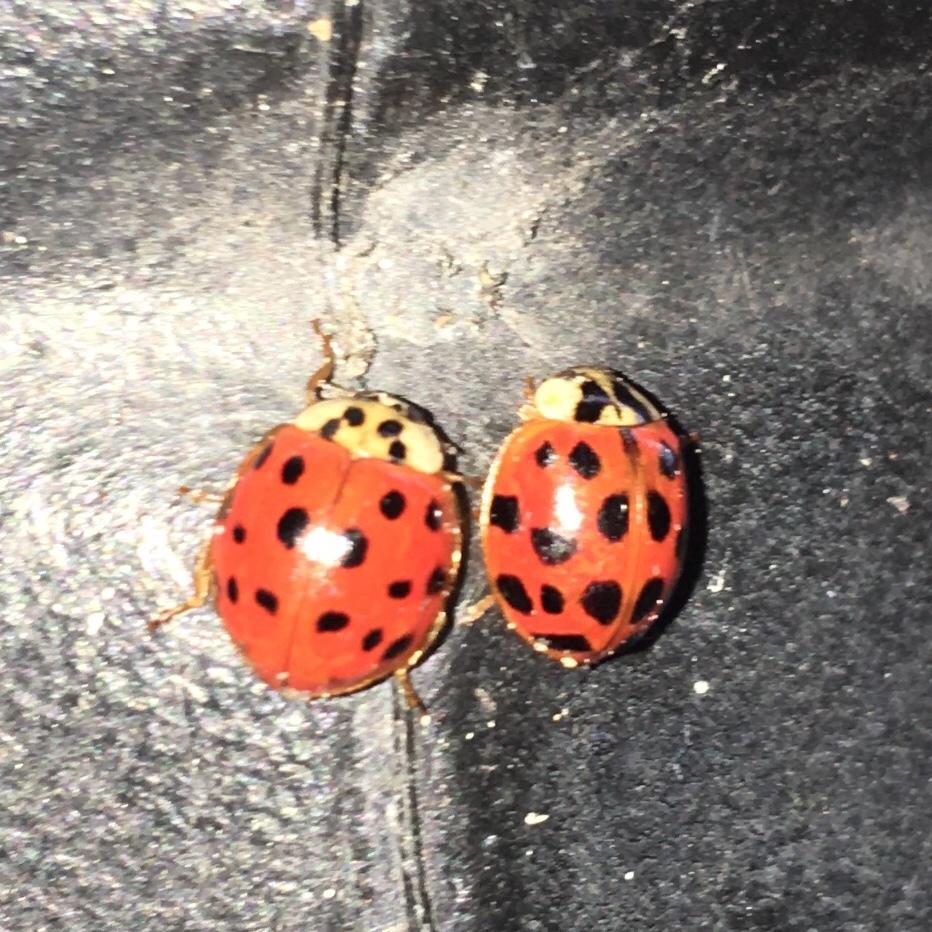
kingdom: Animalia
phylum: Arthropoda
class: Insecta
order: Coleoptera
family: Coccinellidae
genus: Harmonia
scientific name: Harmonia axyridis
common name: Harlequin ladybird
